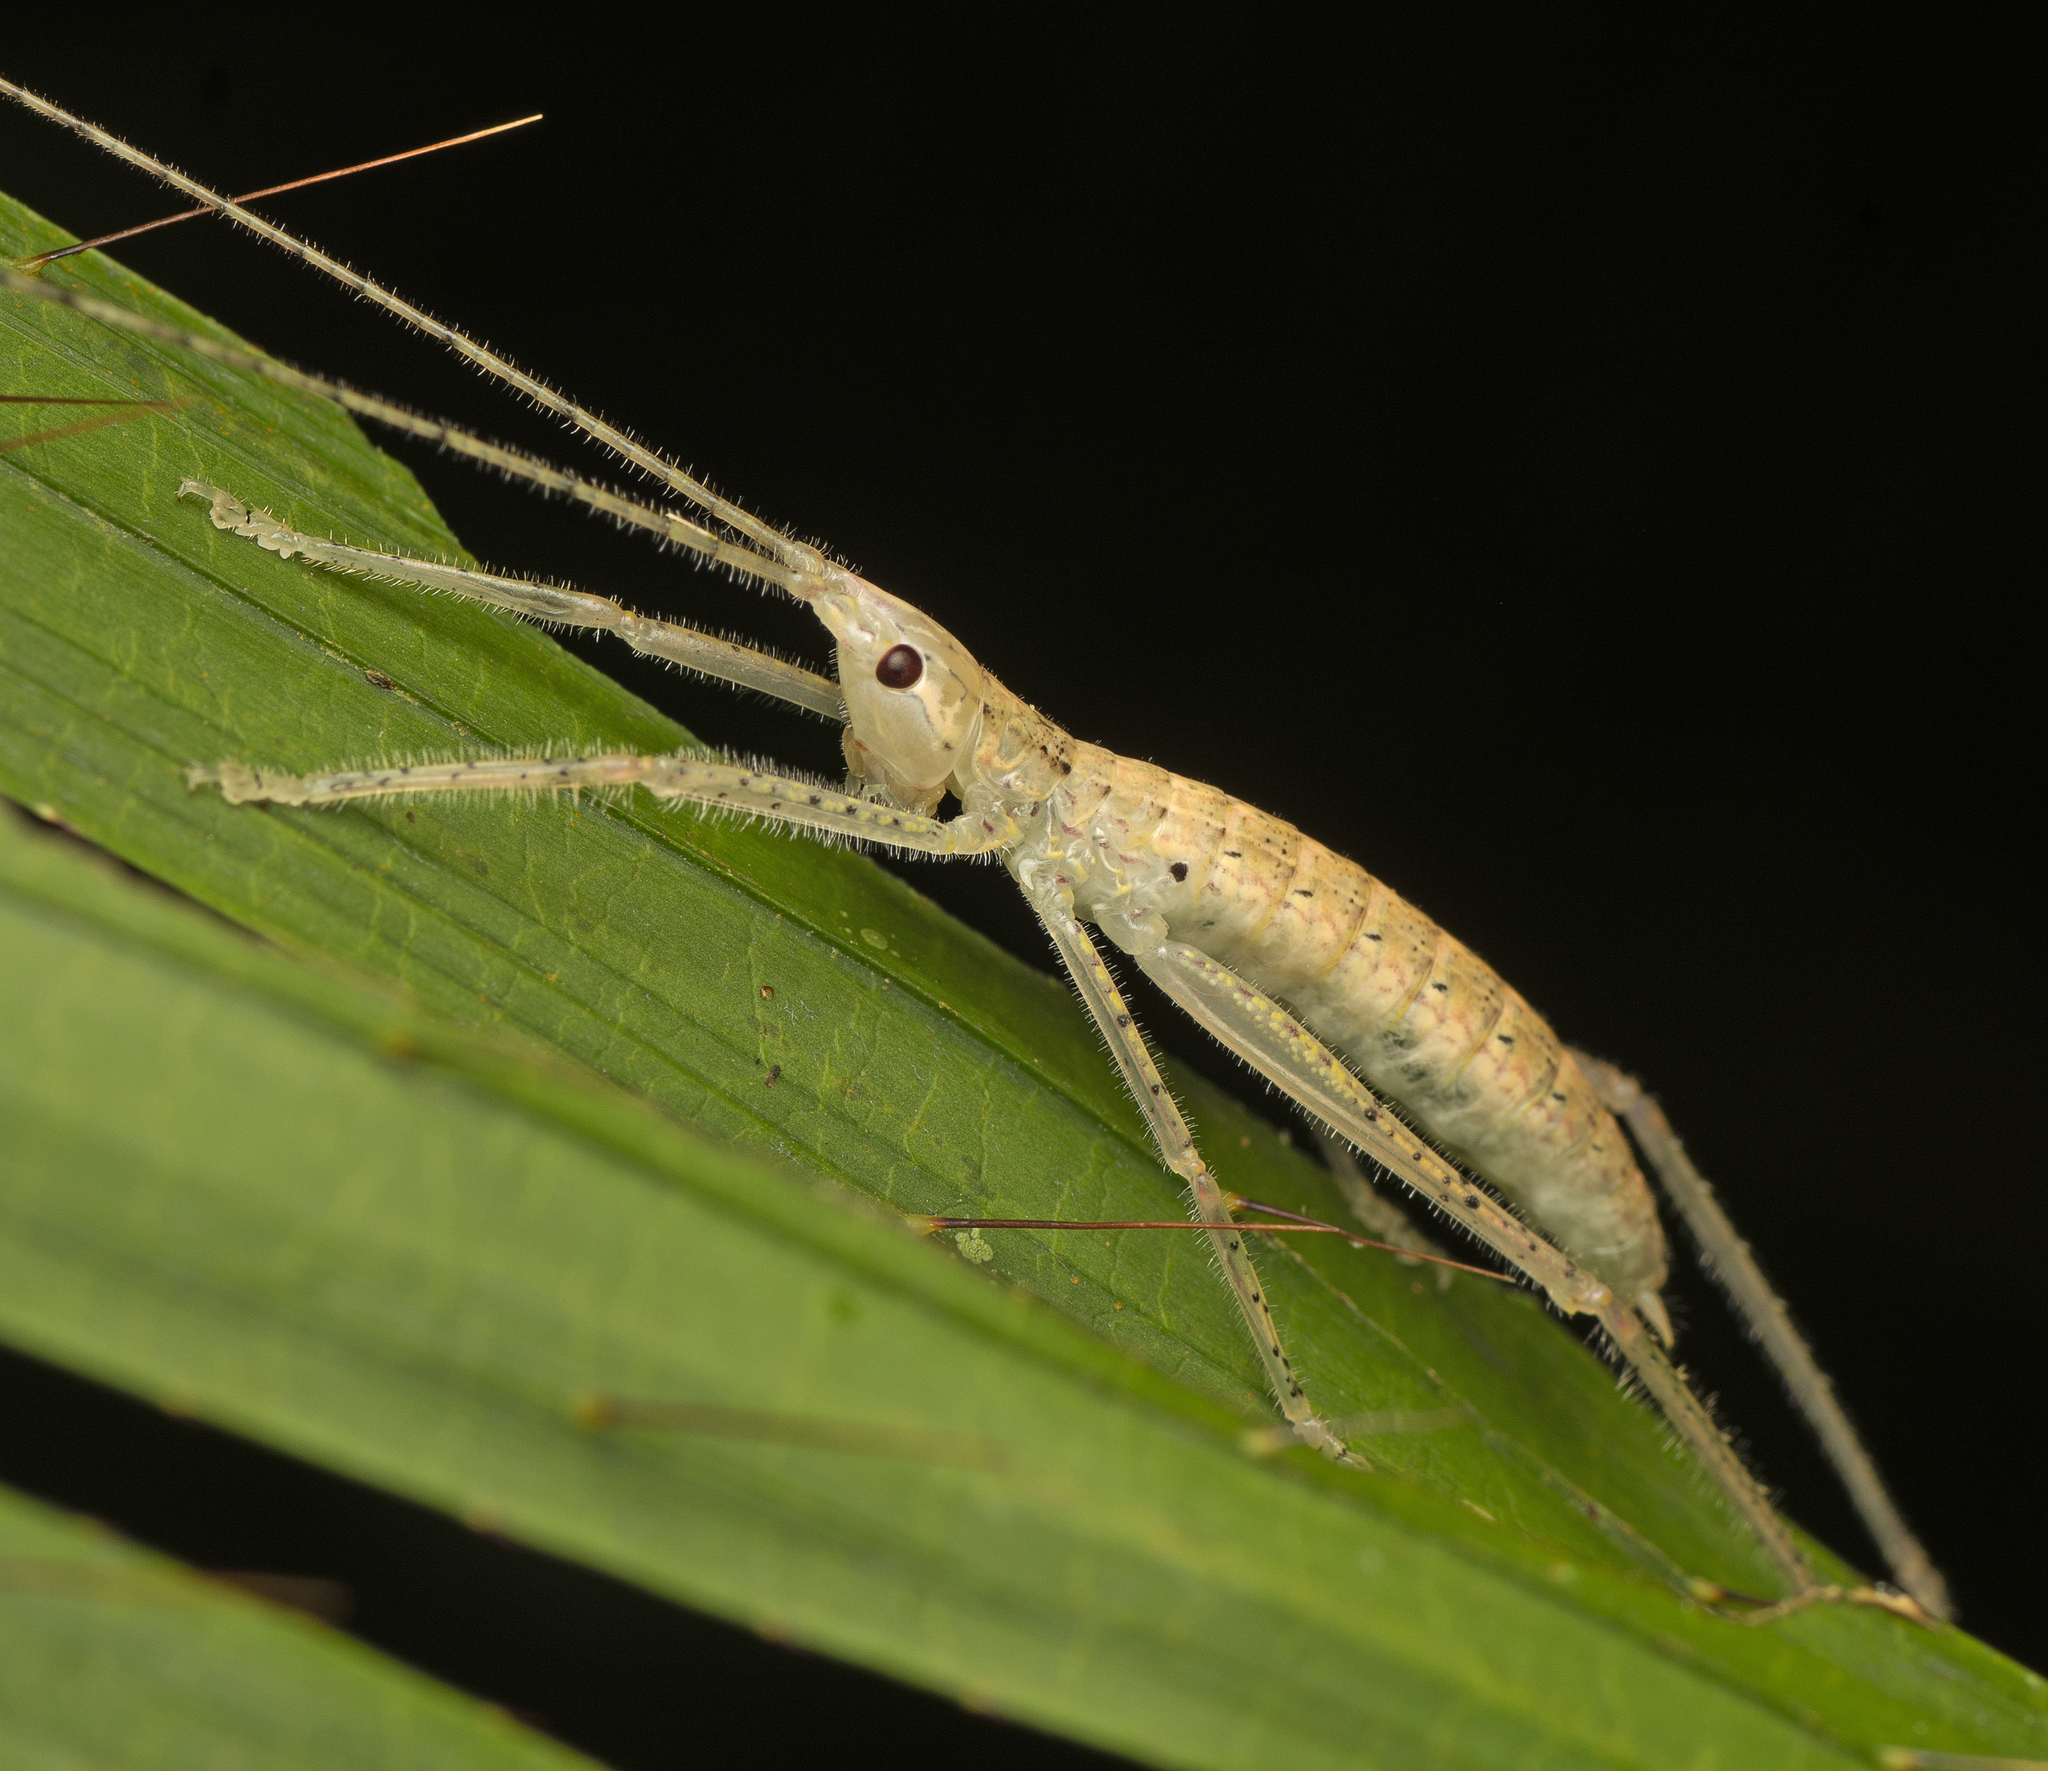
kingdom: Animalia
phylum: Arthropoda
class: Insecta
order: Orthoptera
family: Tettigoniidae
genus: Segestidea
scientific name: Segestidea queenslandica
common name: Queensland palm katydid
